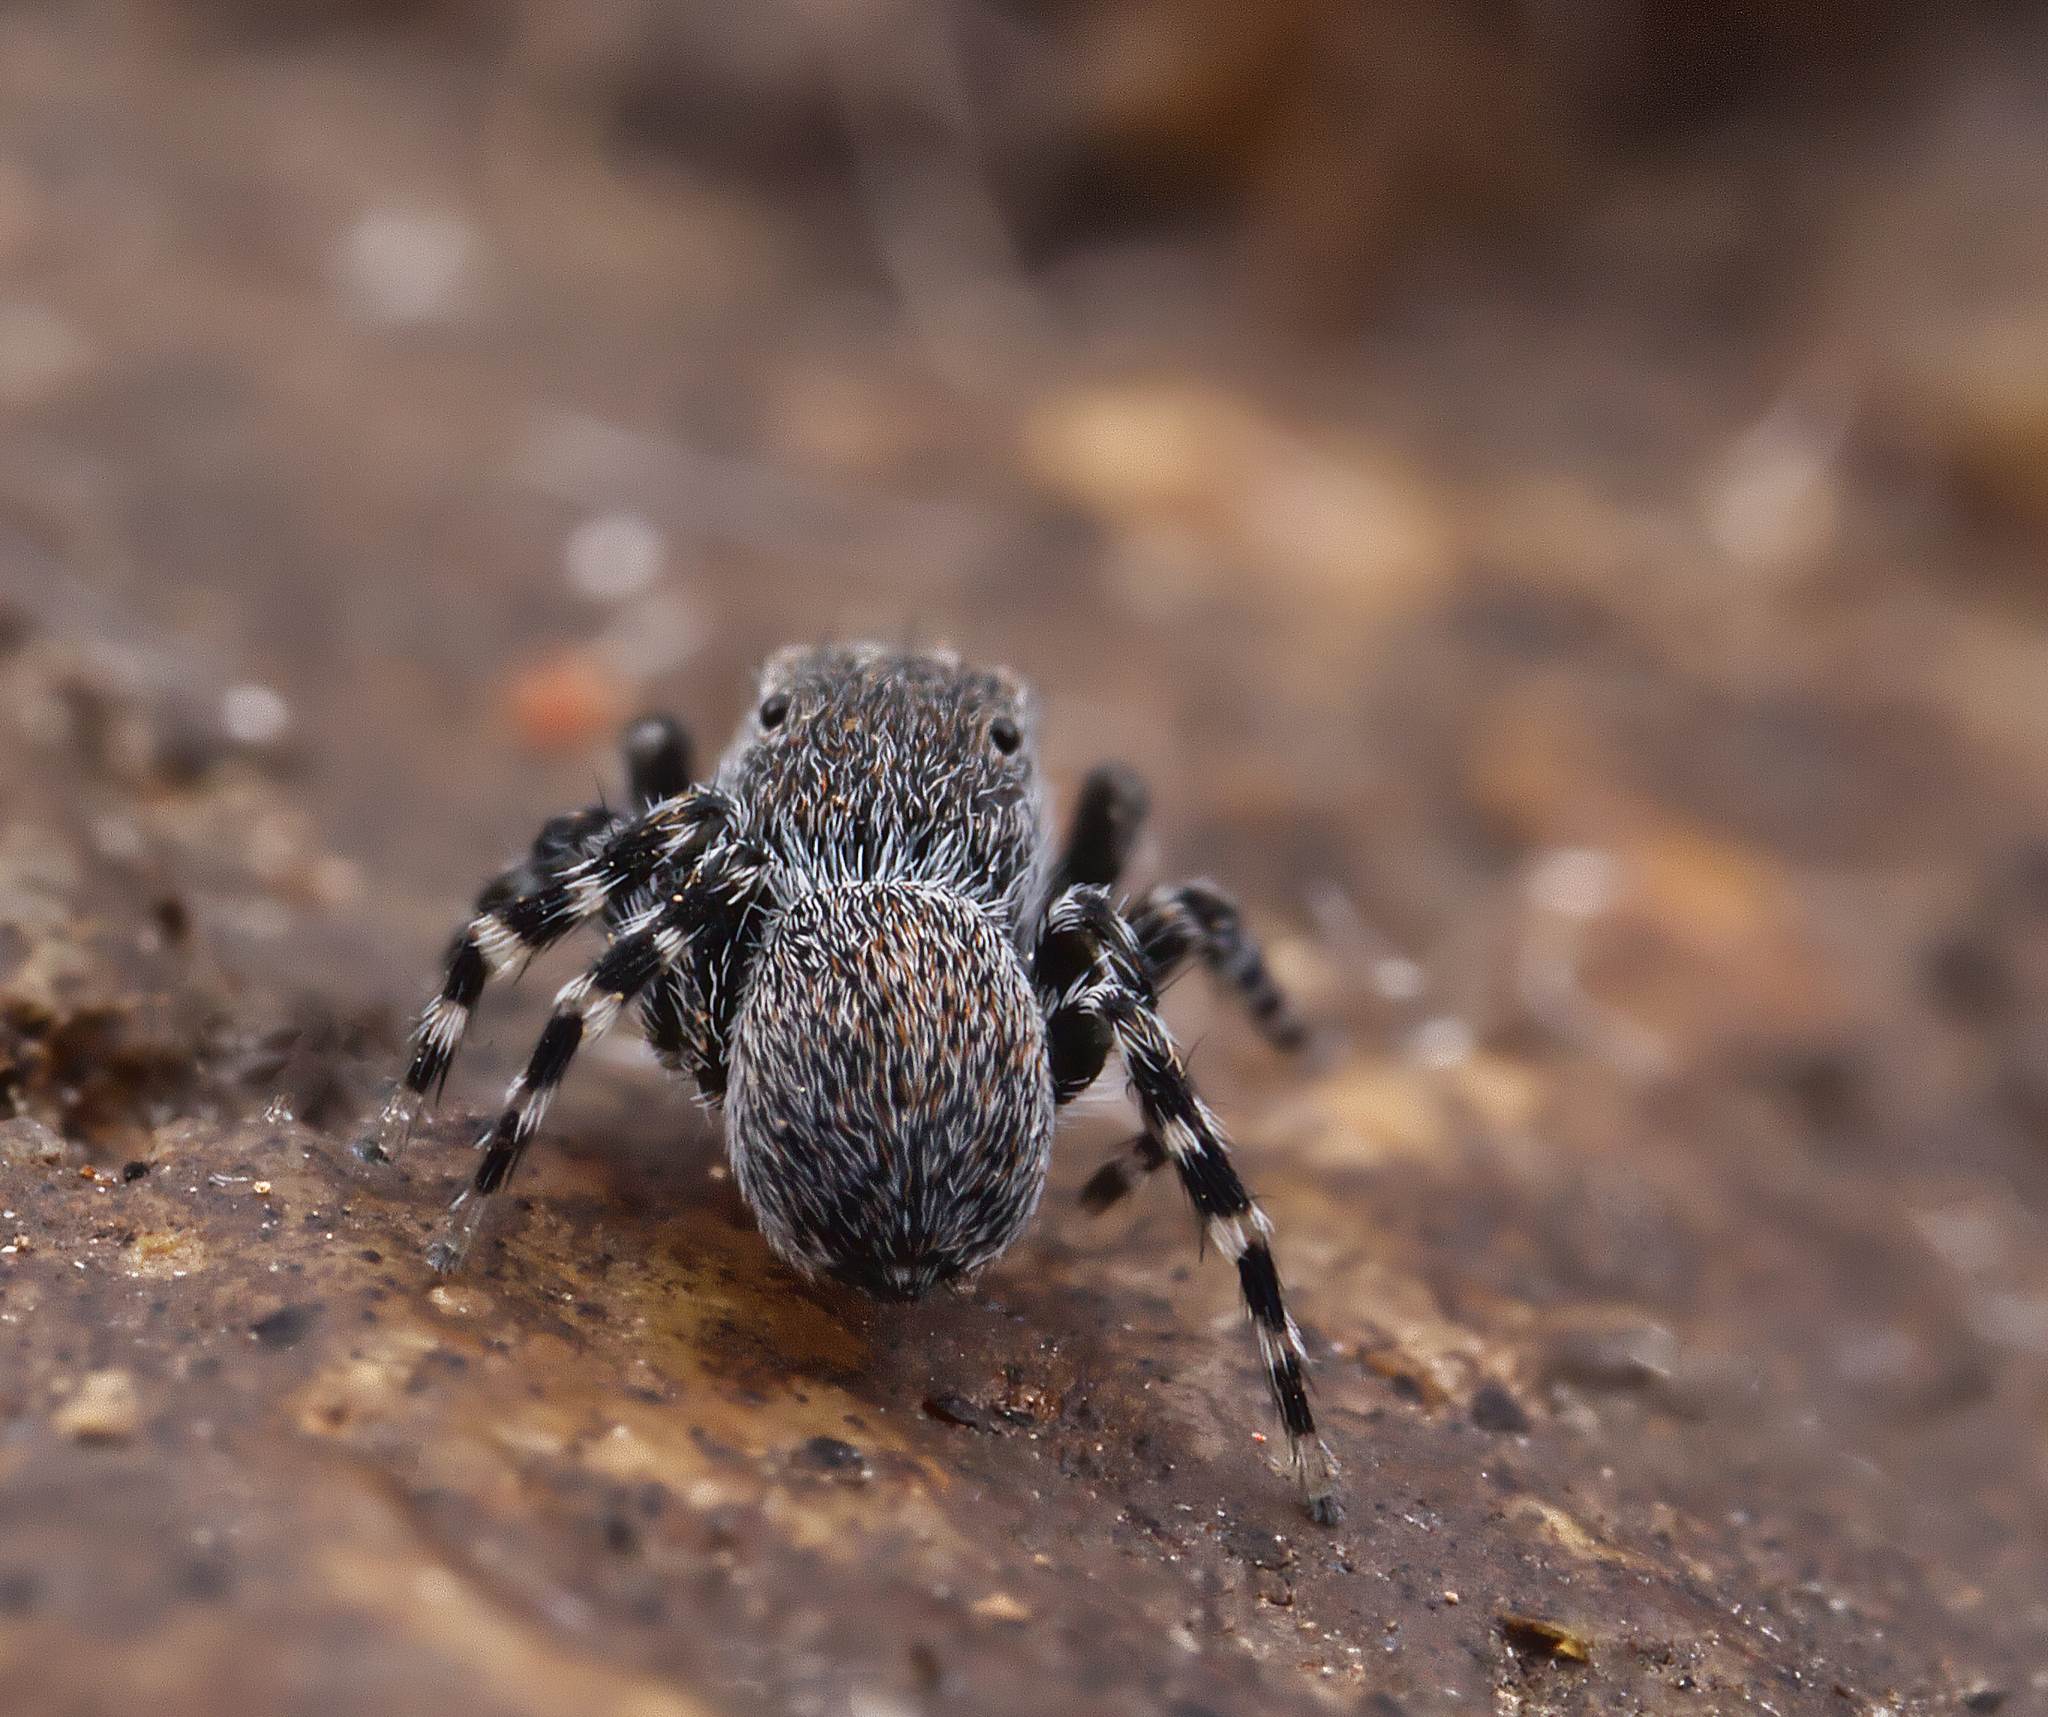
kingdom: Animalia
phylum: Arthropoda
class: Arachnida
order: Araneae
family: Salticidae
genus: Talavera
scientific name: Talavera minuta
